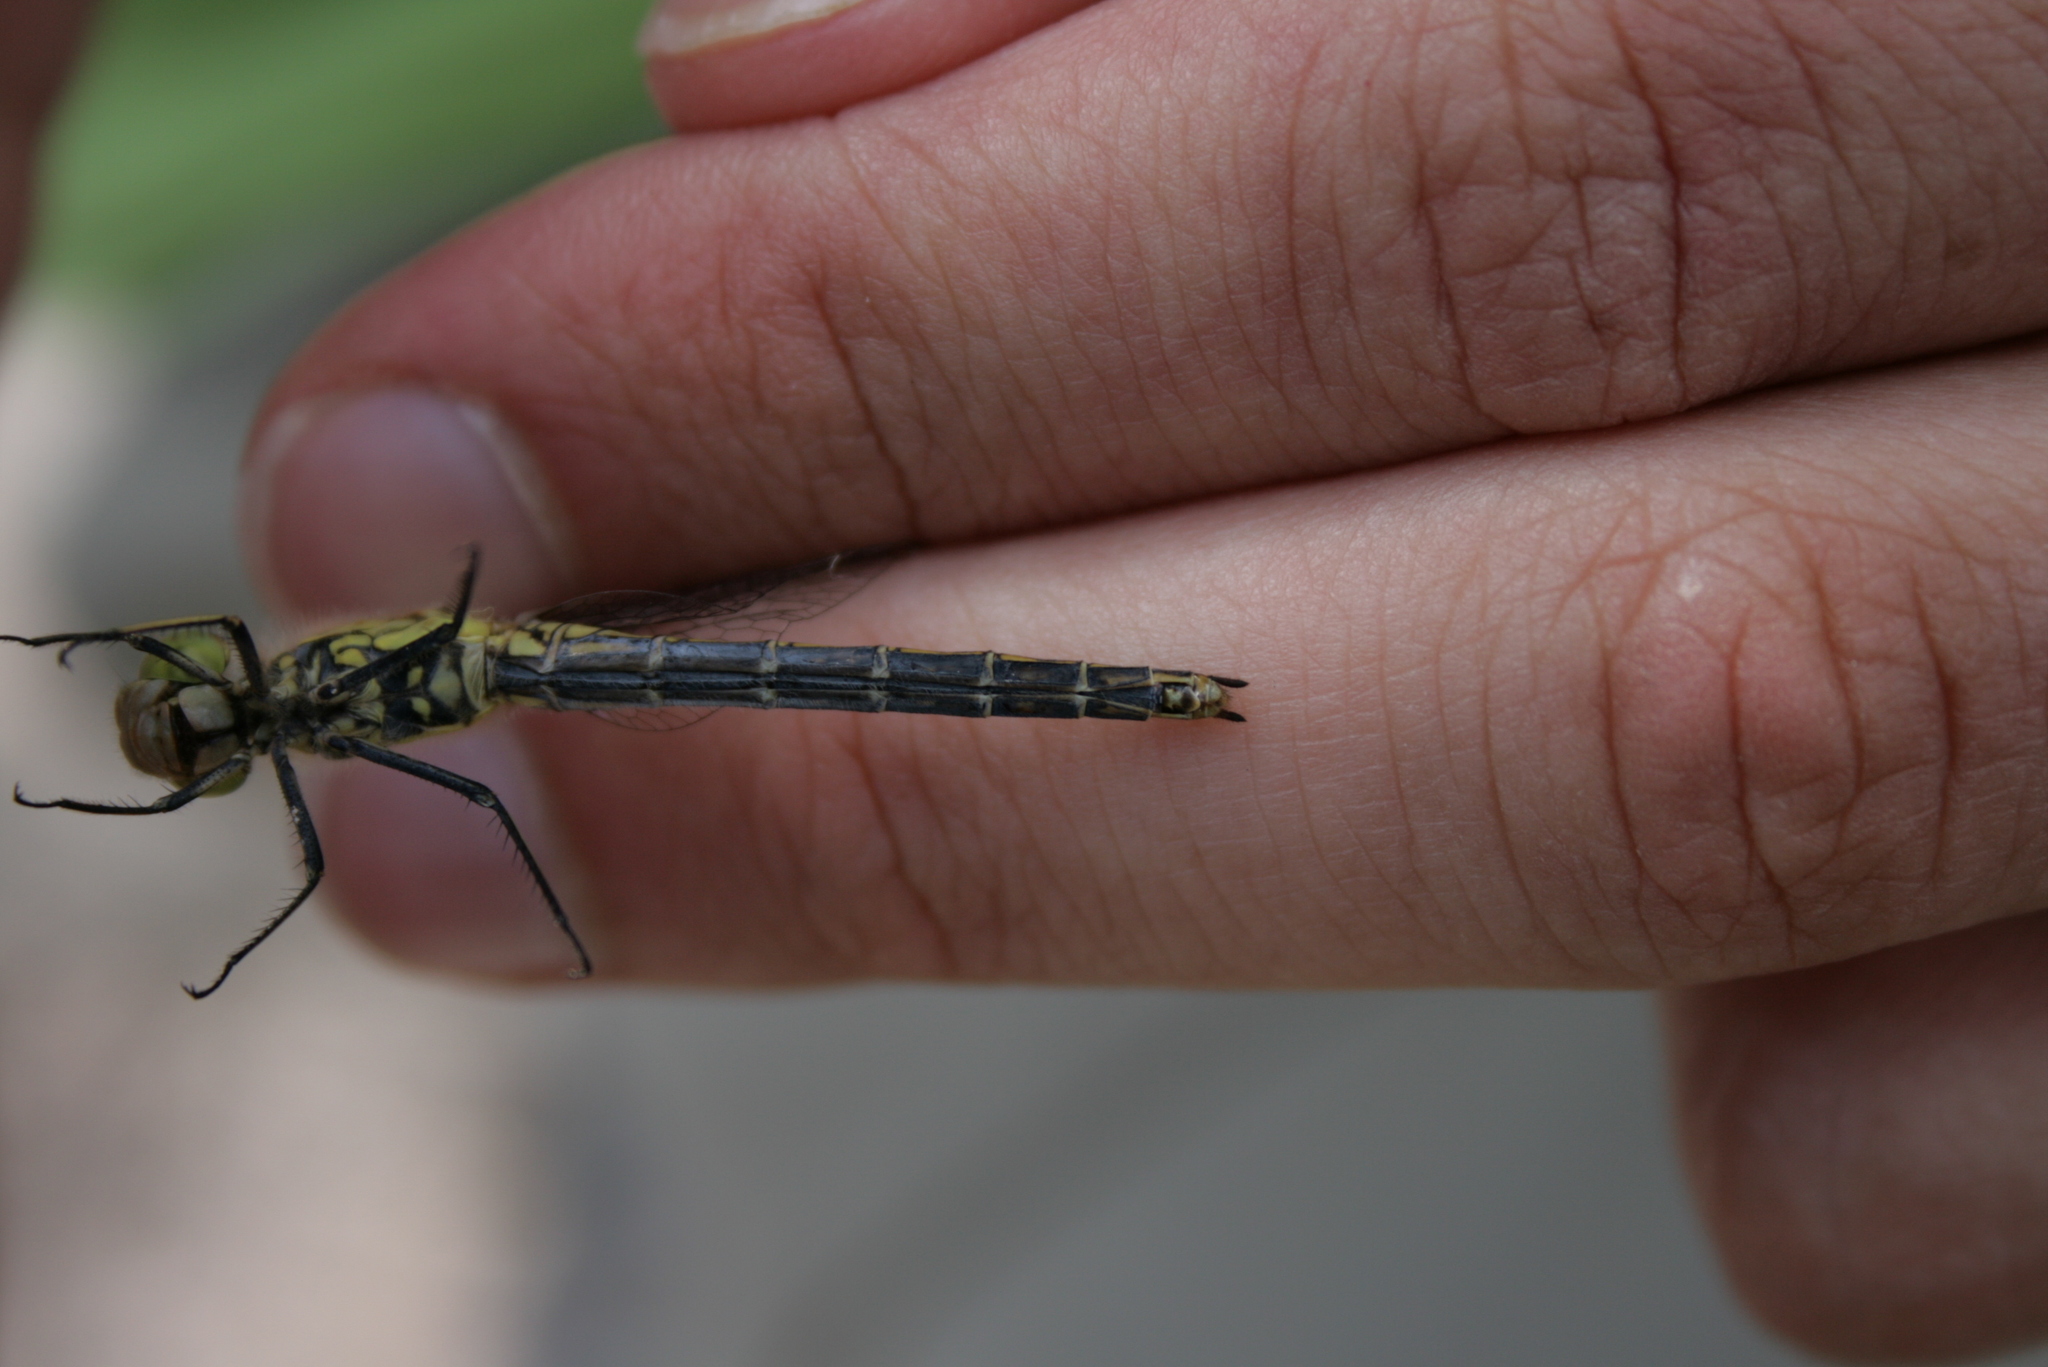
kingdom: Animalia
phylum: Arthropoda
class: Insecta
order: Odonata
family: Libellulidae
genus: Sympetrum
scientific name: Sympetrum vulgatum
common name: Vagrant darter
